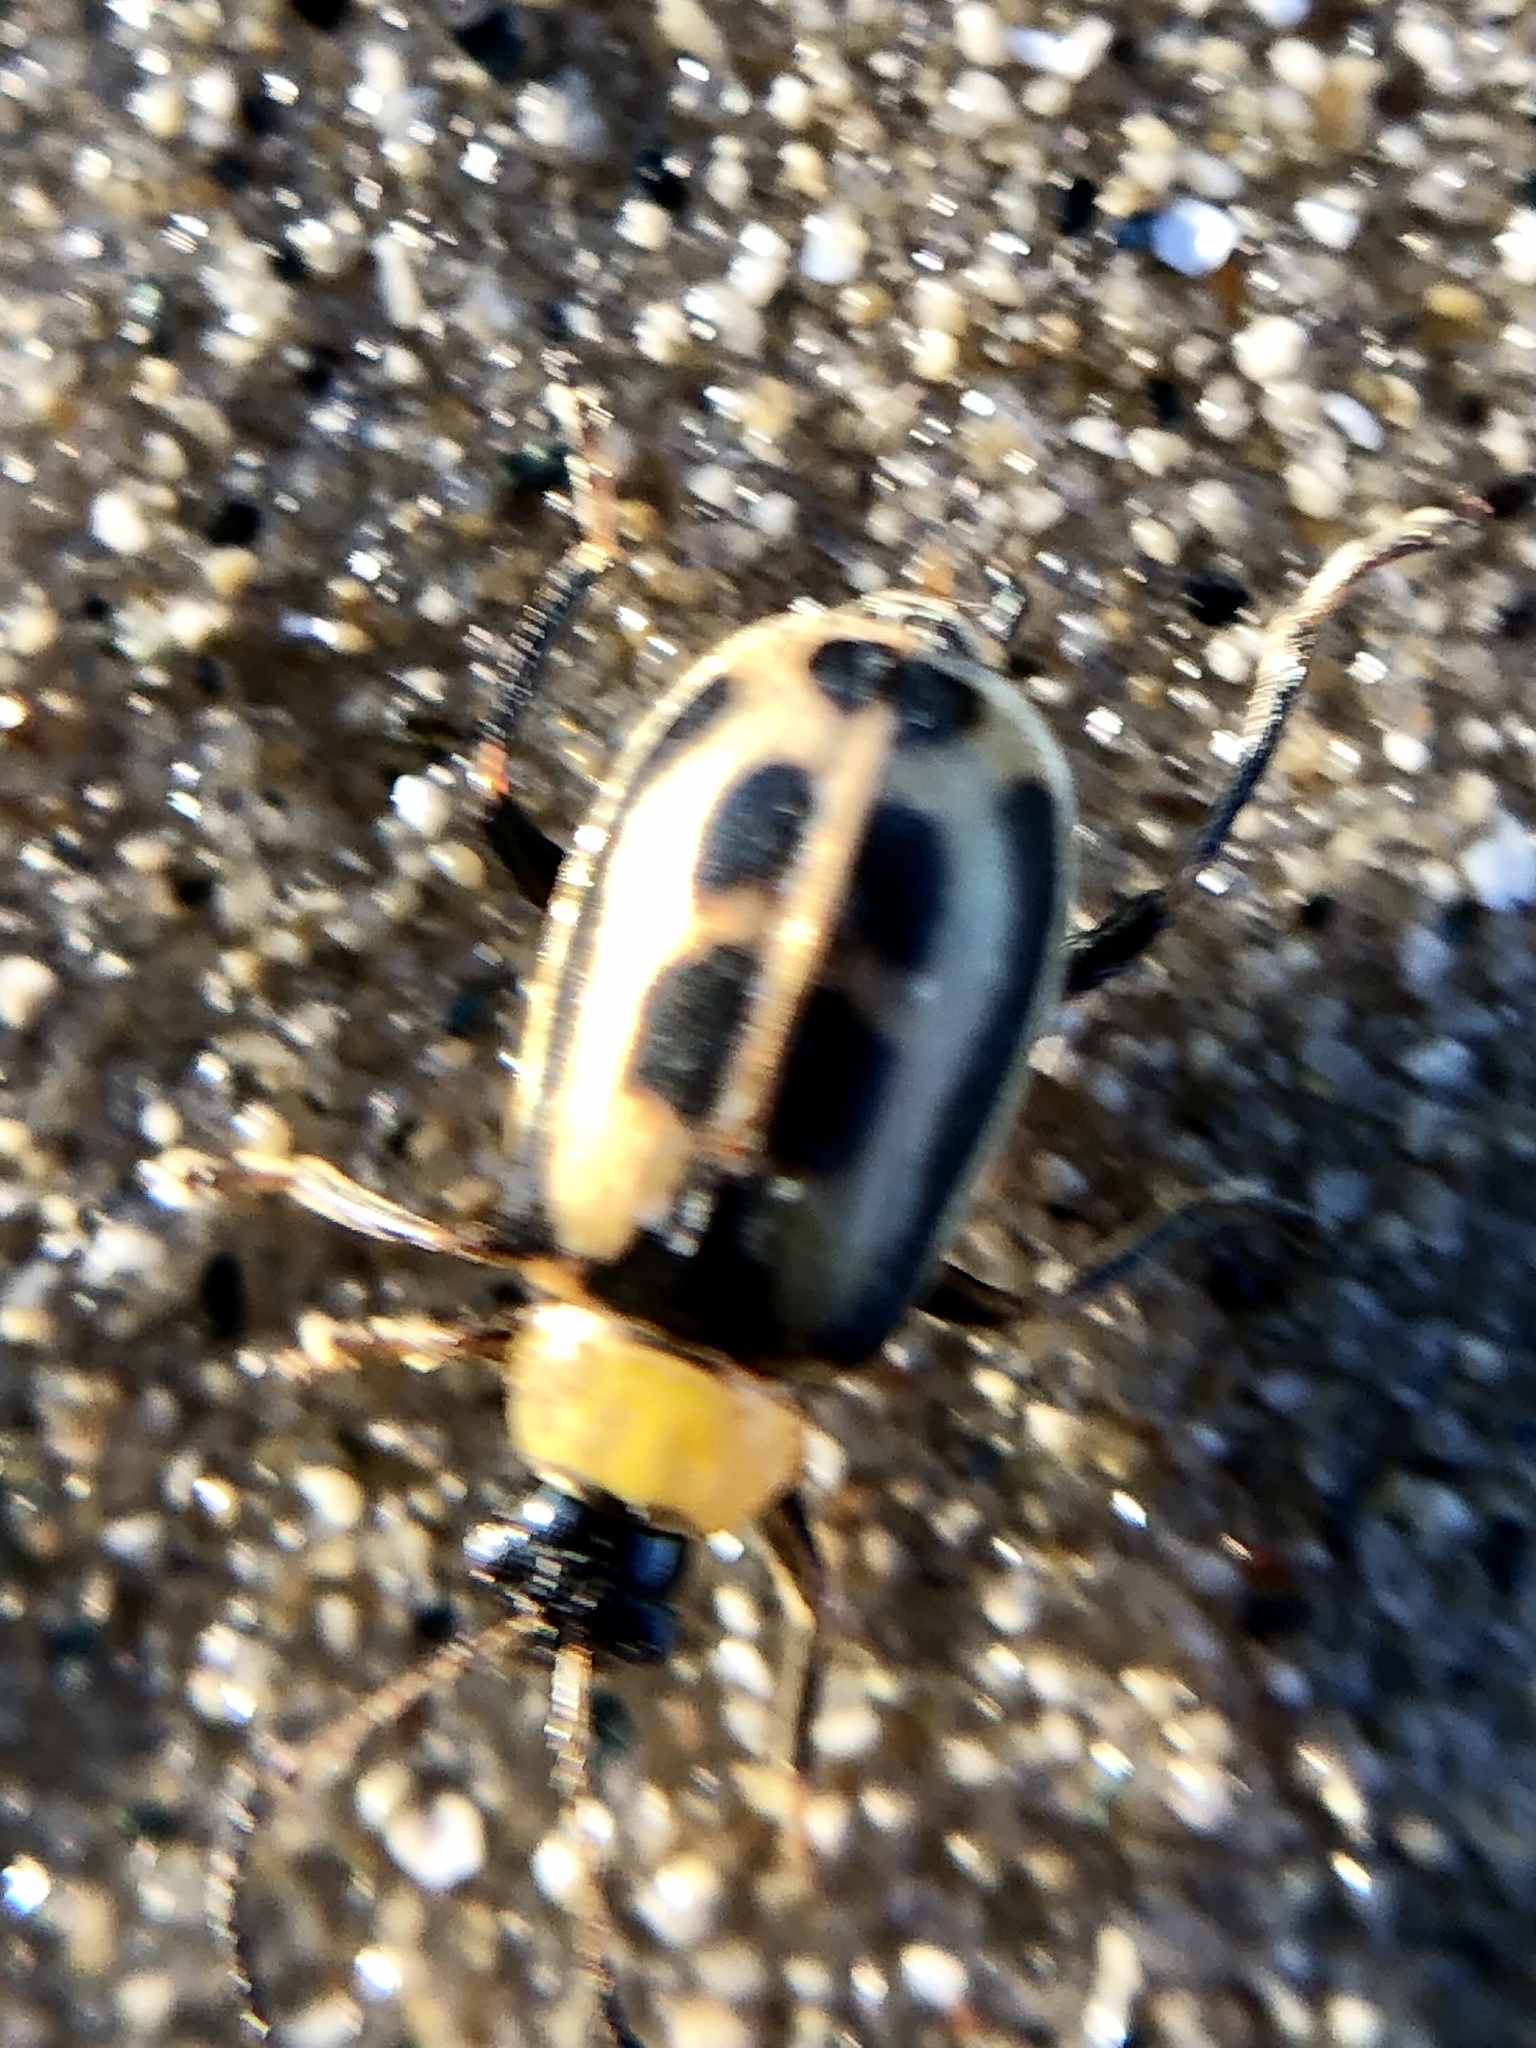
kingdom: Animalia
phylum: Arthropoda
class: Insecta
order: Coleoptera
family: Chrysomelidae
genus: Cerotoma
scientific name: Cerotoma trifurcata
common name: Bean leaf beetle
